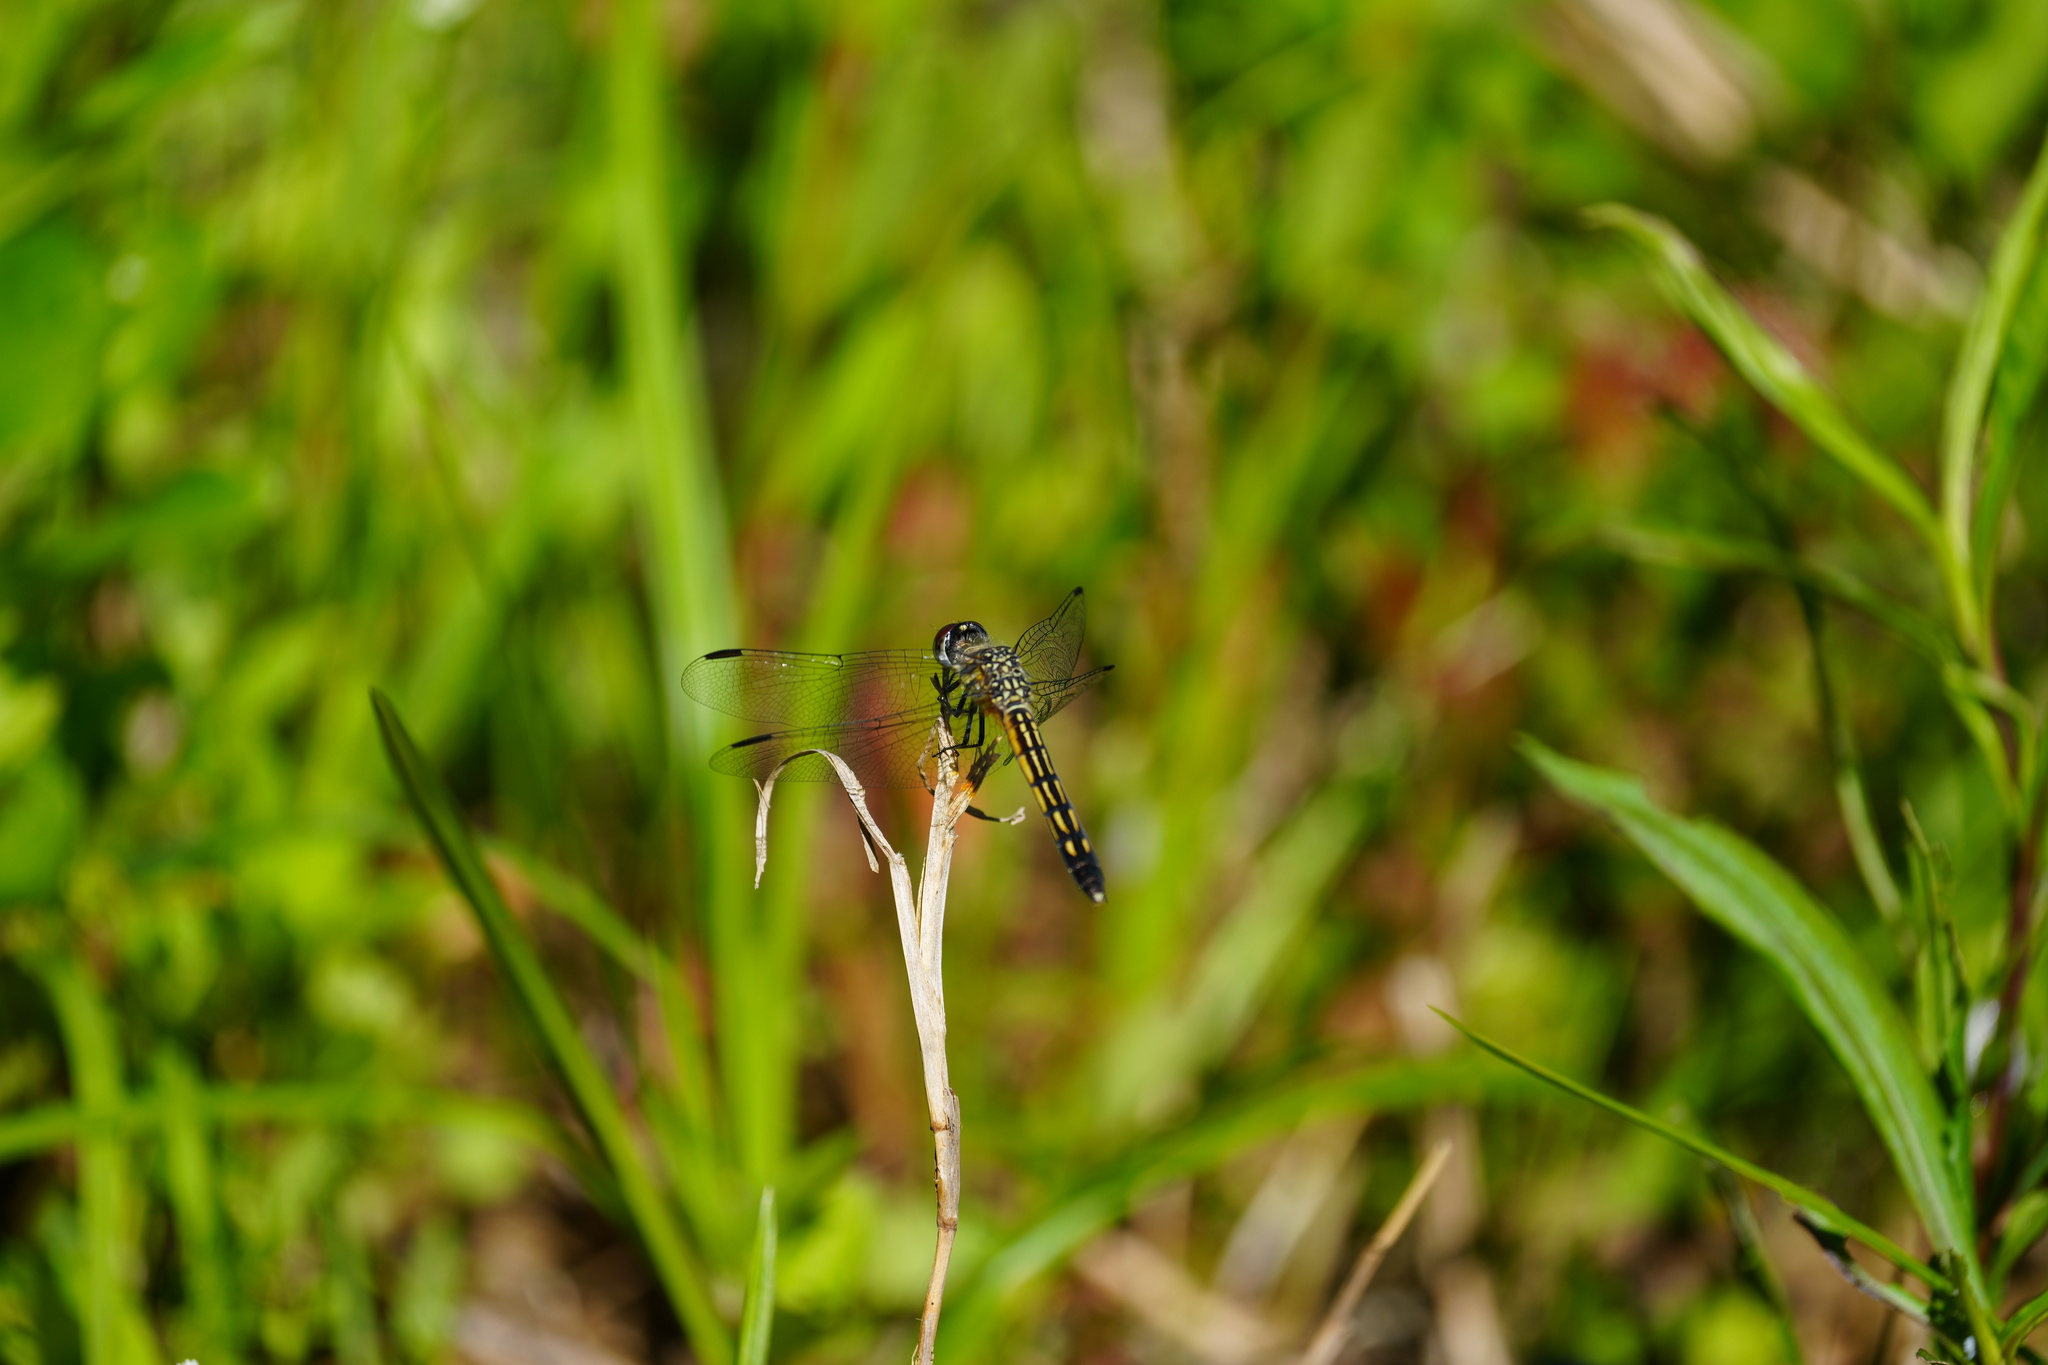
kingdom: Animalia
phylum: Arthropoda
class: Insecta
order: Odonata
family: Libellulidae
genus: Pachydiplax
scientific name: Pachydiplax longipennis
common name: Blue dasher
